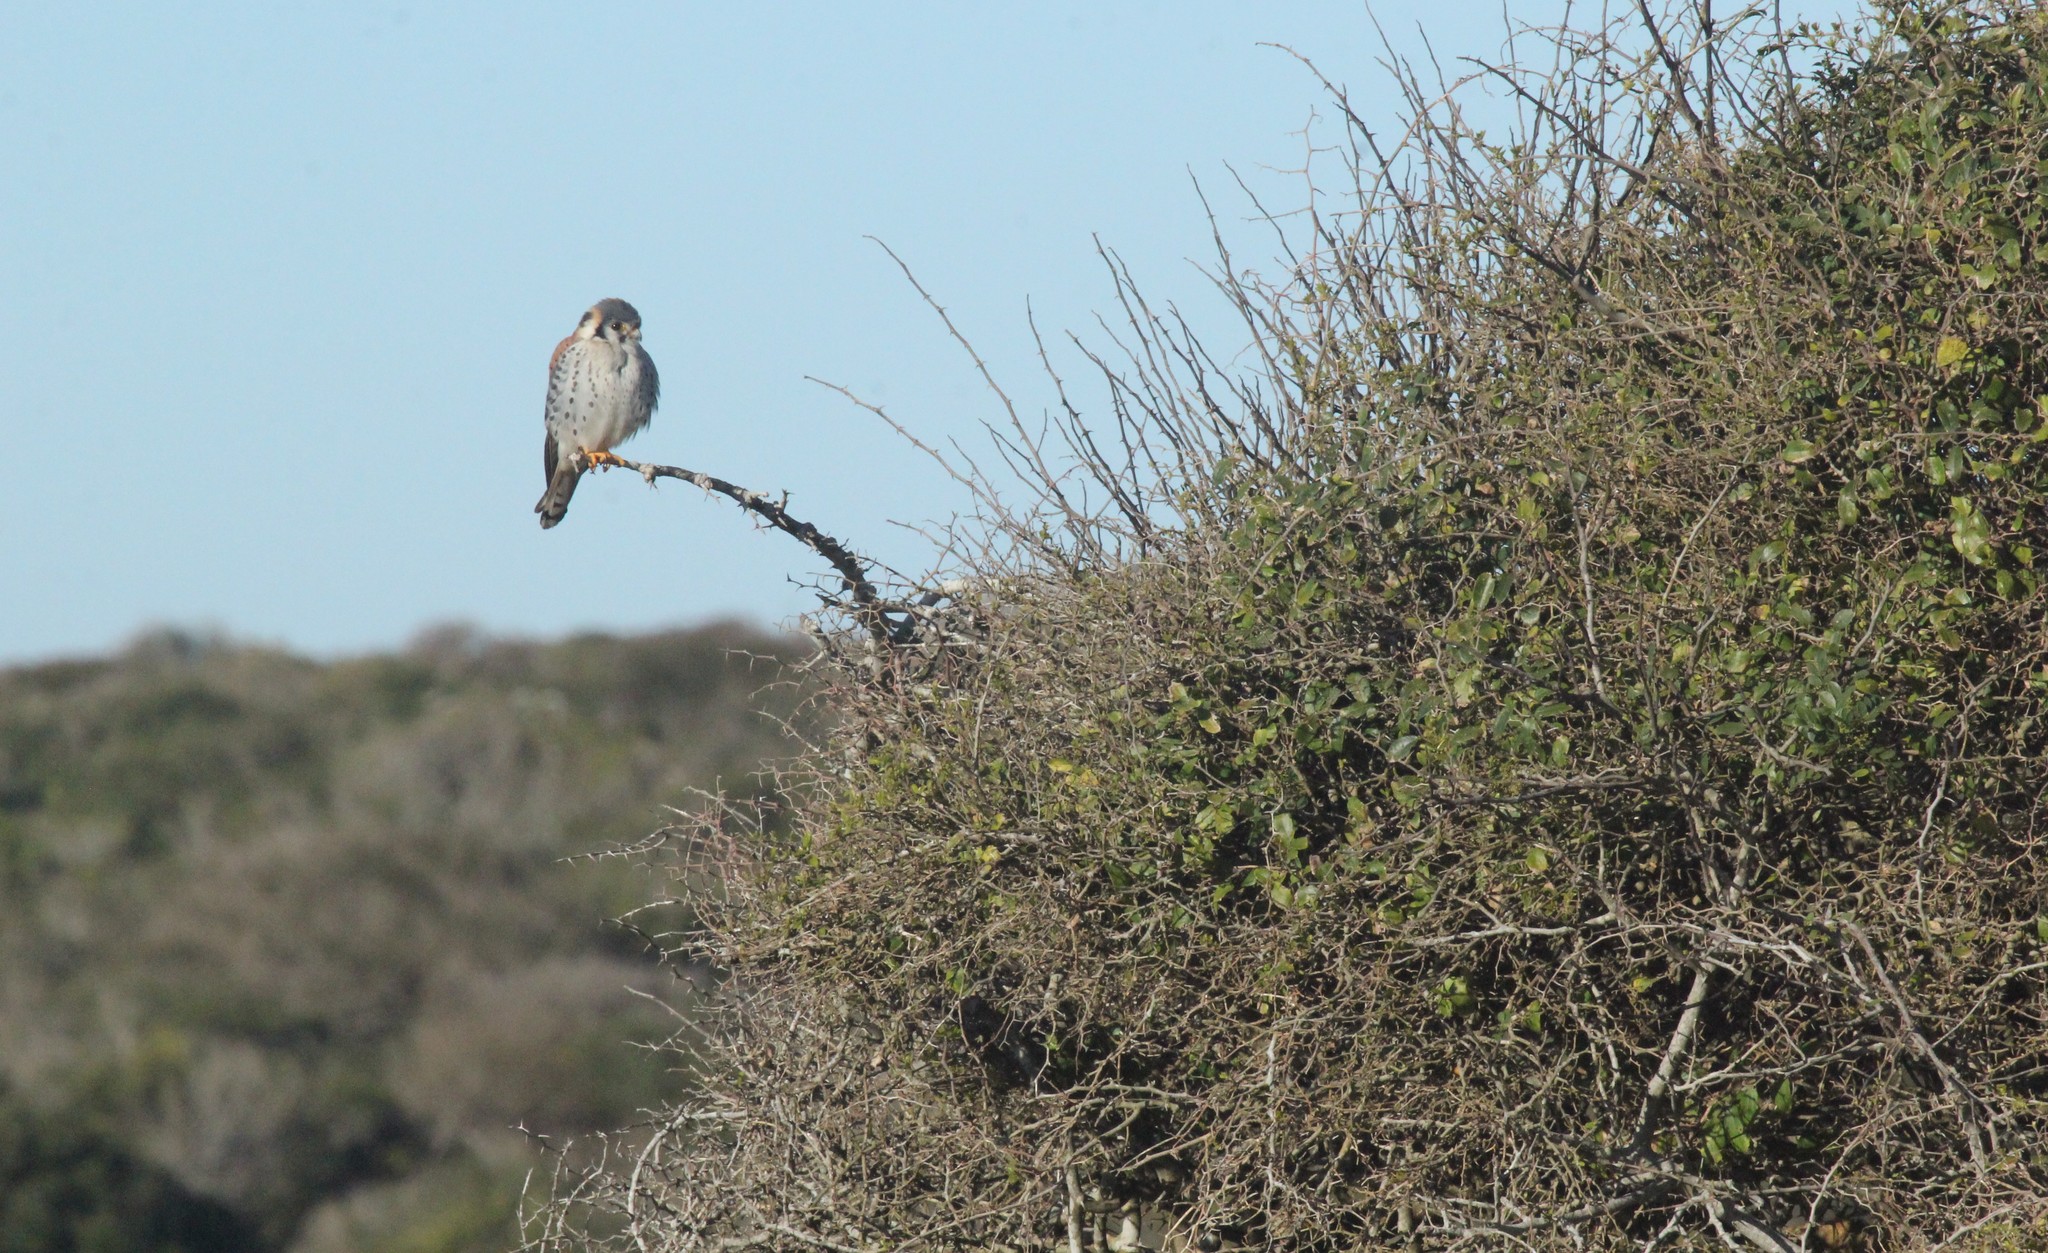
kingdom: Animalia
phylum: Chordata
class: Aves
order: Falconiformes
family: Falconidae
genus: Falco
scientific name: Falco sparverius
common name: American kestrel
